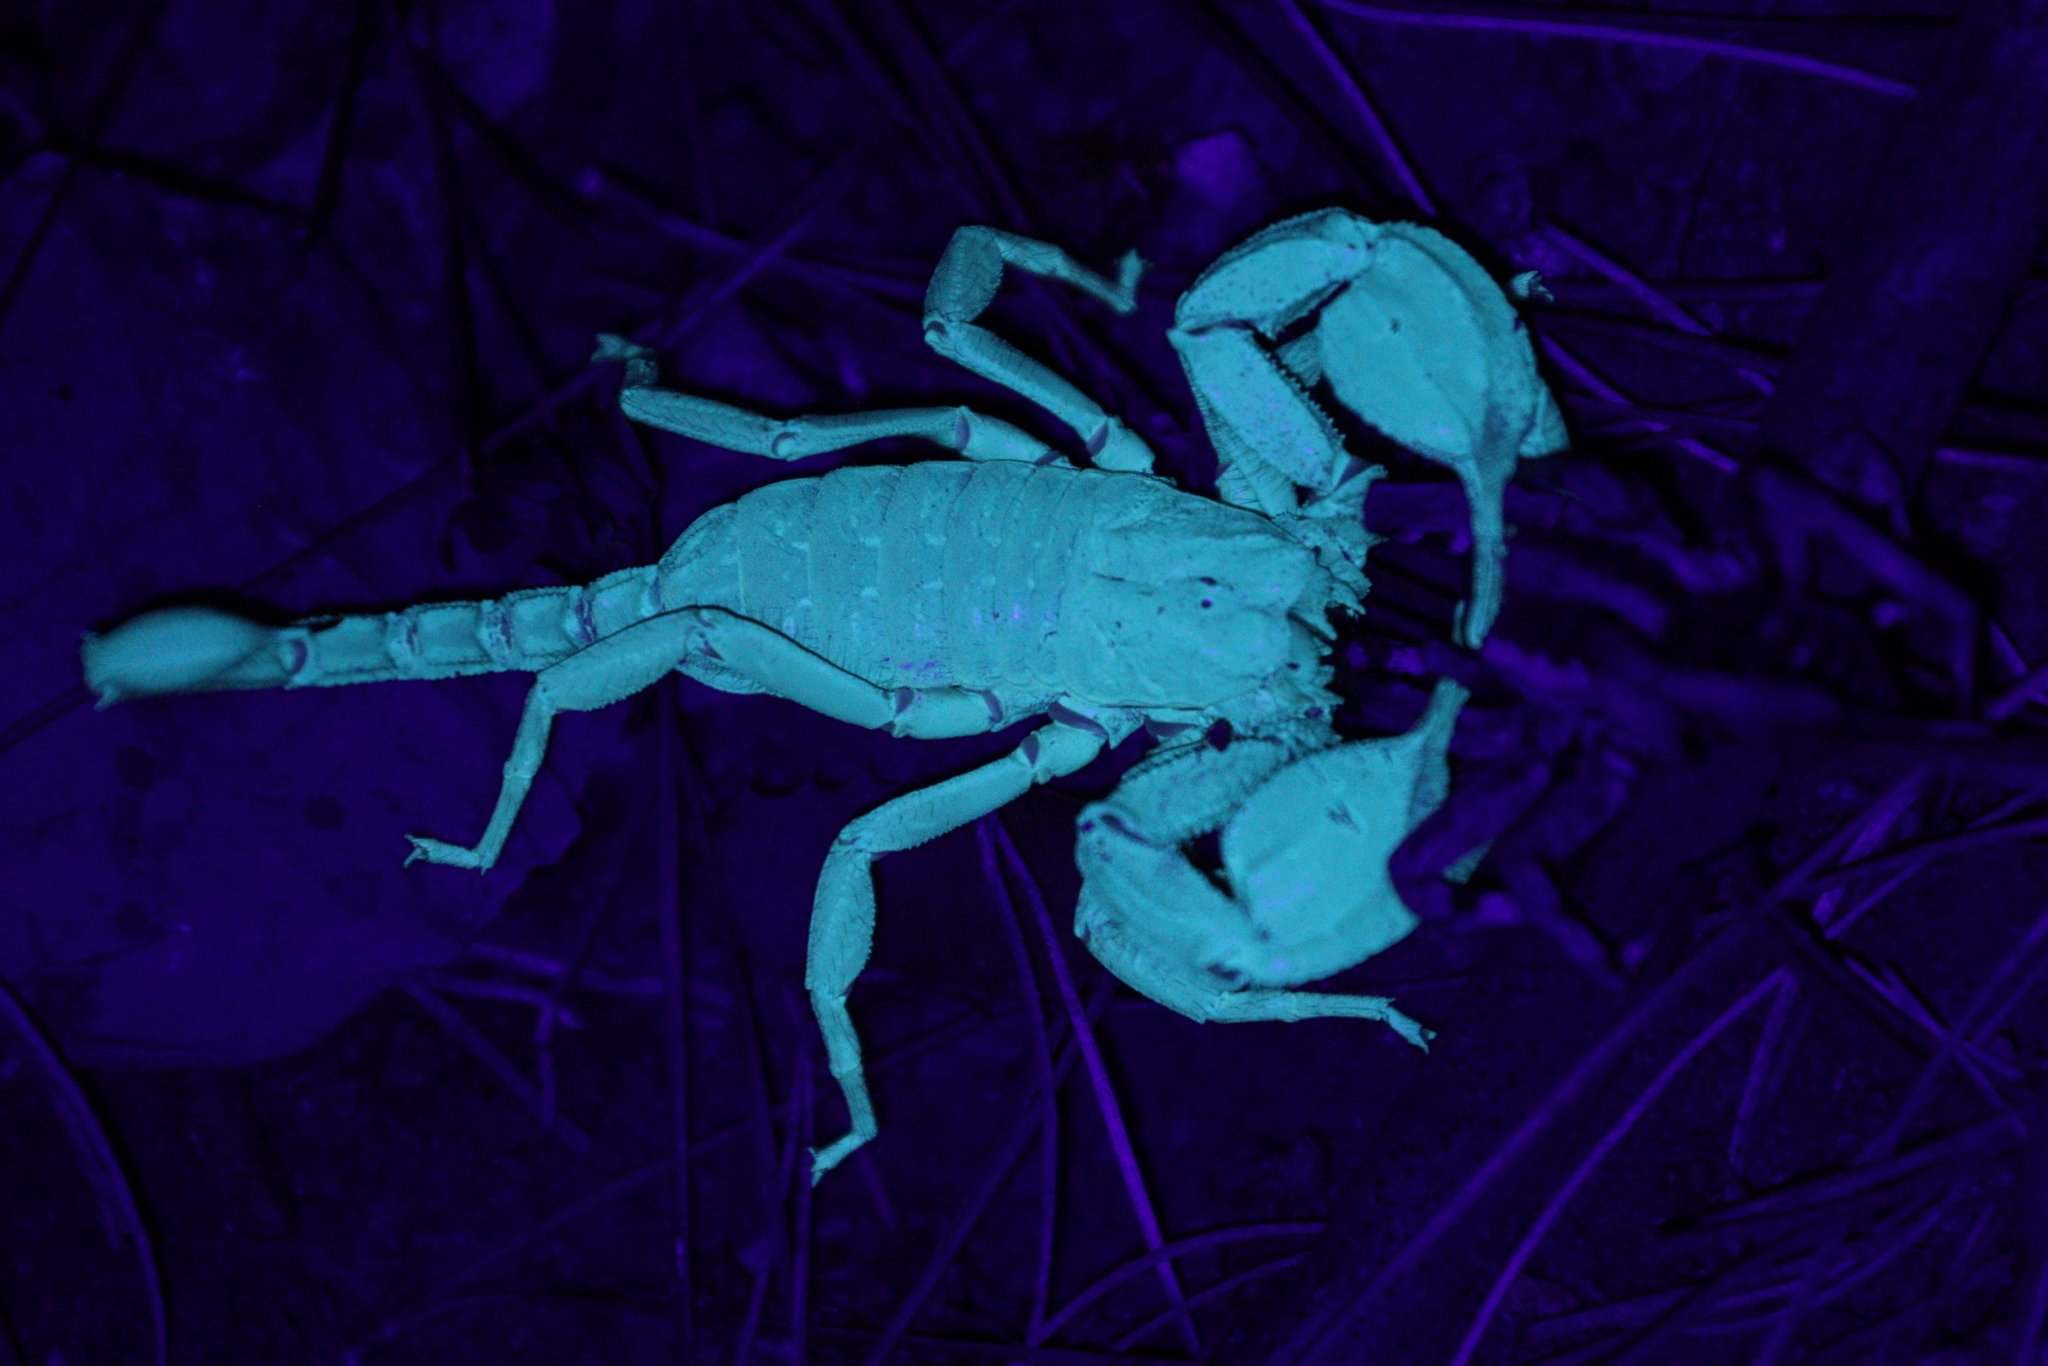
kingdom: Animalia
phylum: Arthropoda
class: Arachnida
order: Scorpiones
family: Iuridae
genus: Anatoliurus
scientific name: Anatoliurus kraepelini
